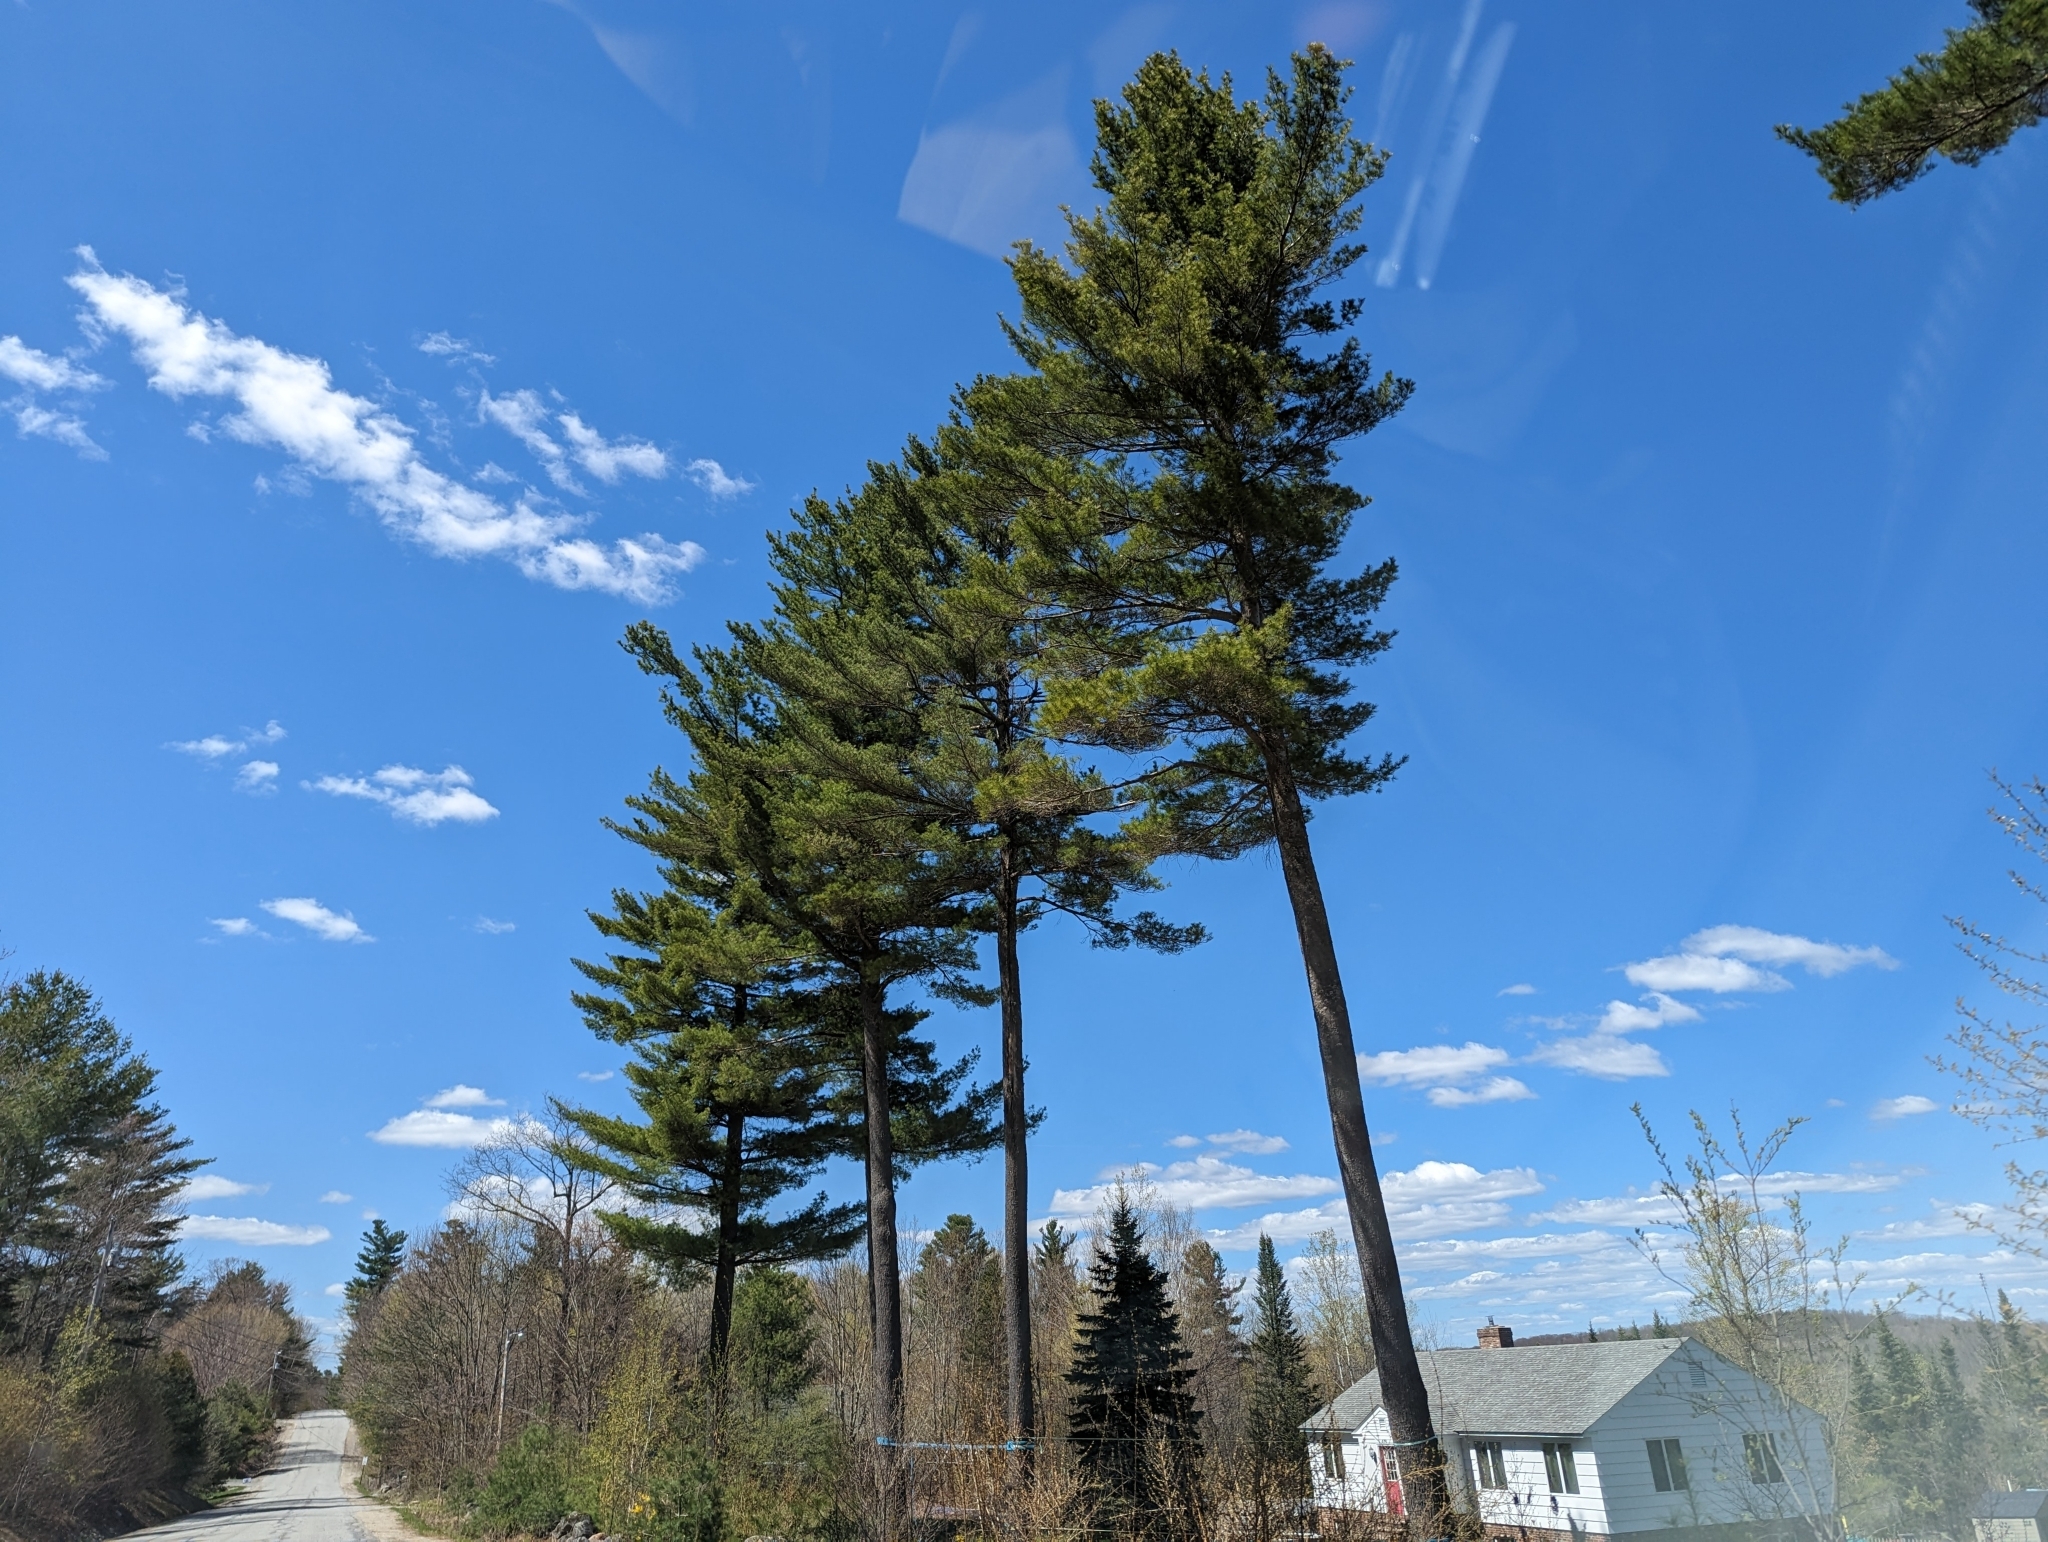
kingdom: Plantae
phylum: Tracheophyta
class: Pinopsida
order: Pinales
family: Pinaceae
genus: Pinus
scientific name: Pinus strobus
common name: Weymouth pine
